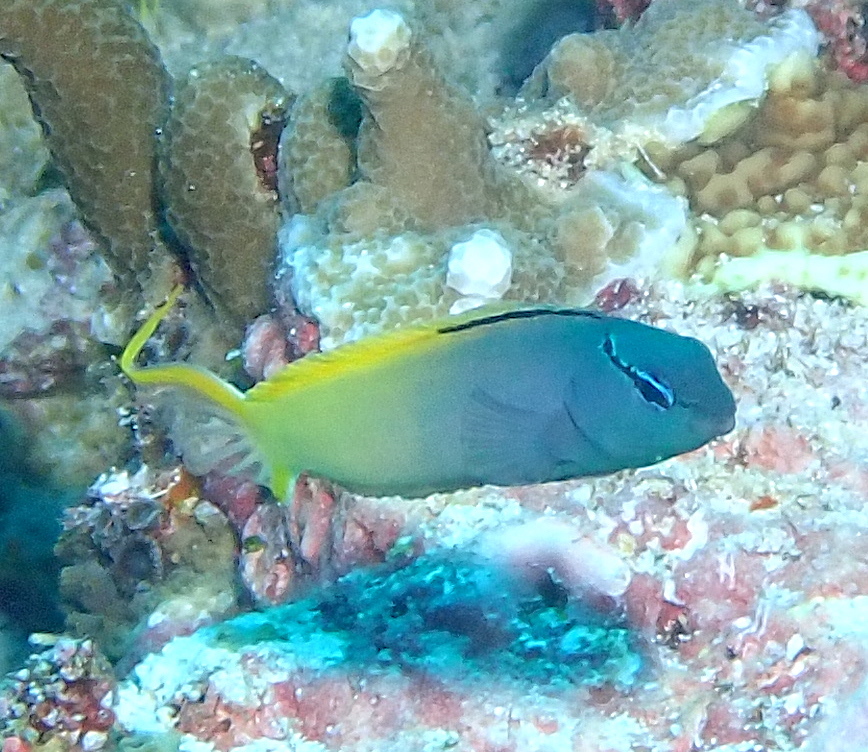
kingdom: Animalia
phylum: Chordata
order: Perciformes
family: Blenniidae
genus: Meiacanthus
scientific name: Meiacanthus atrodorsalis
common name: Eye-lash harptail-blenny
